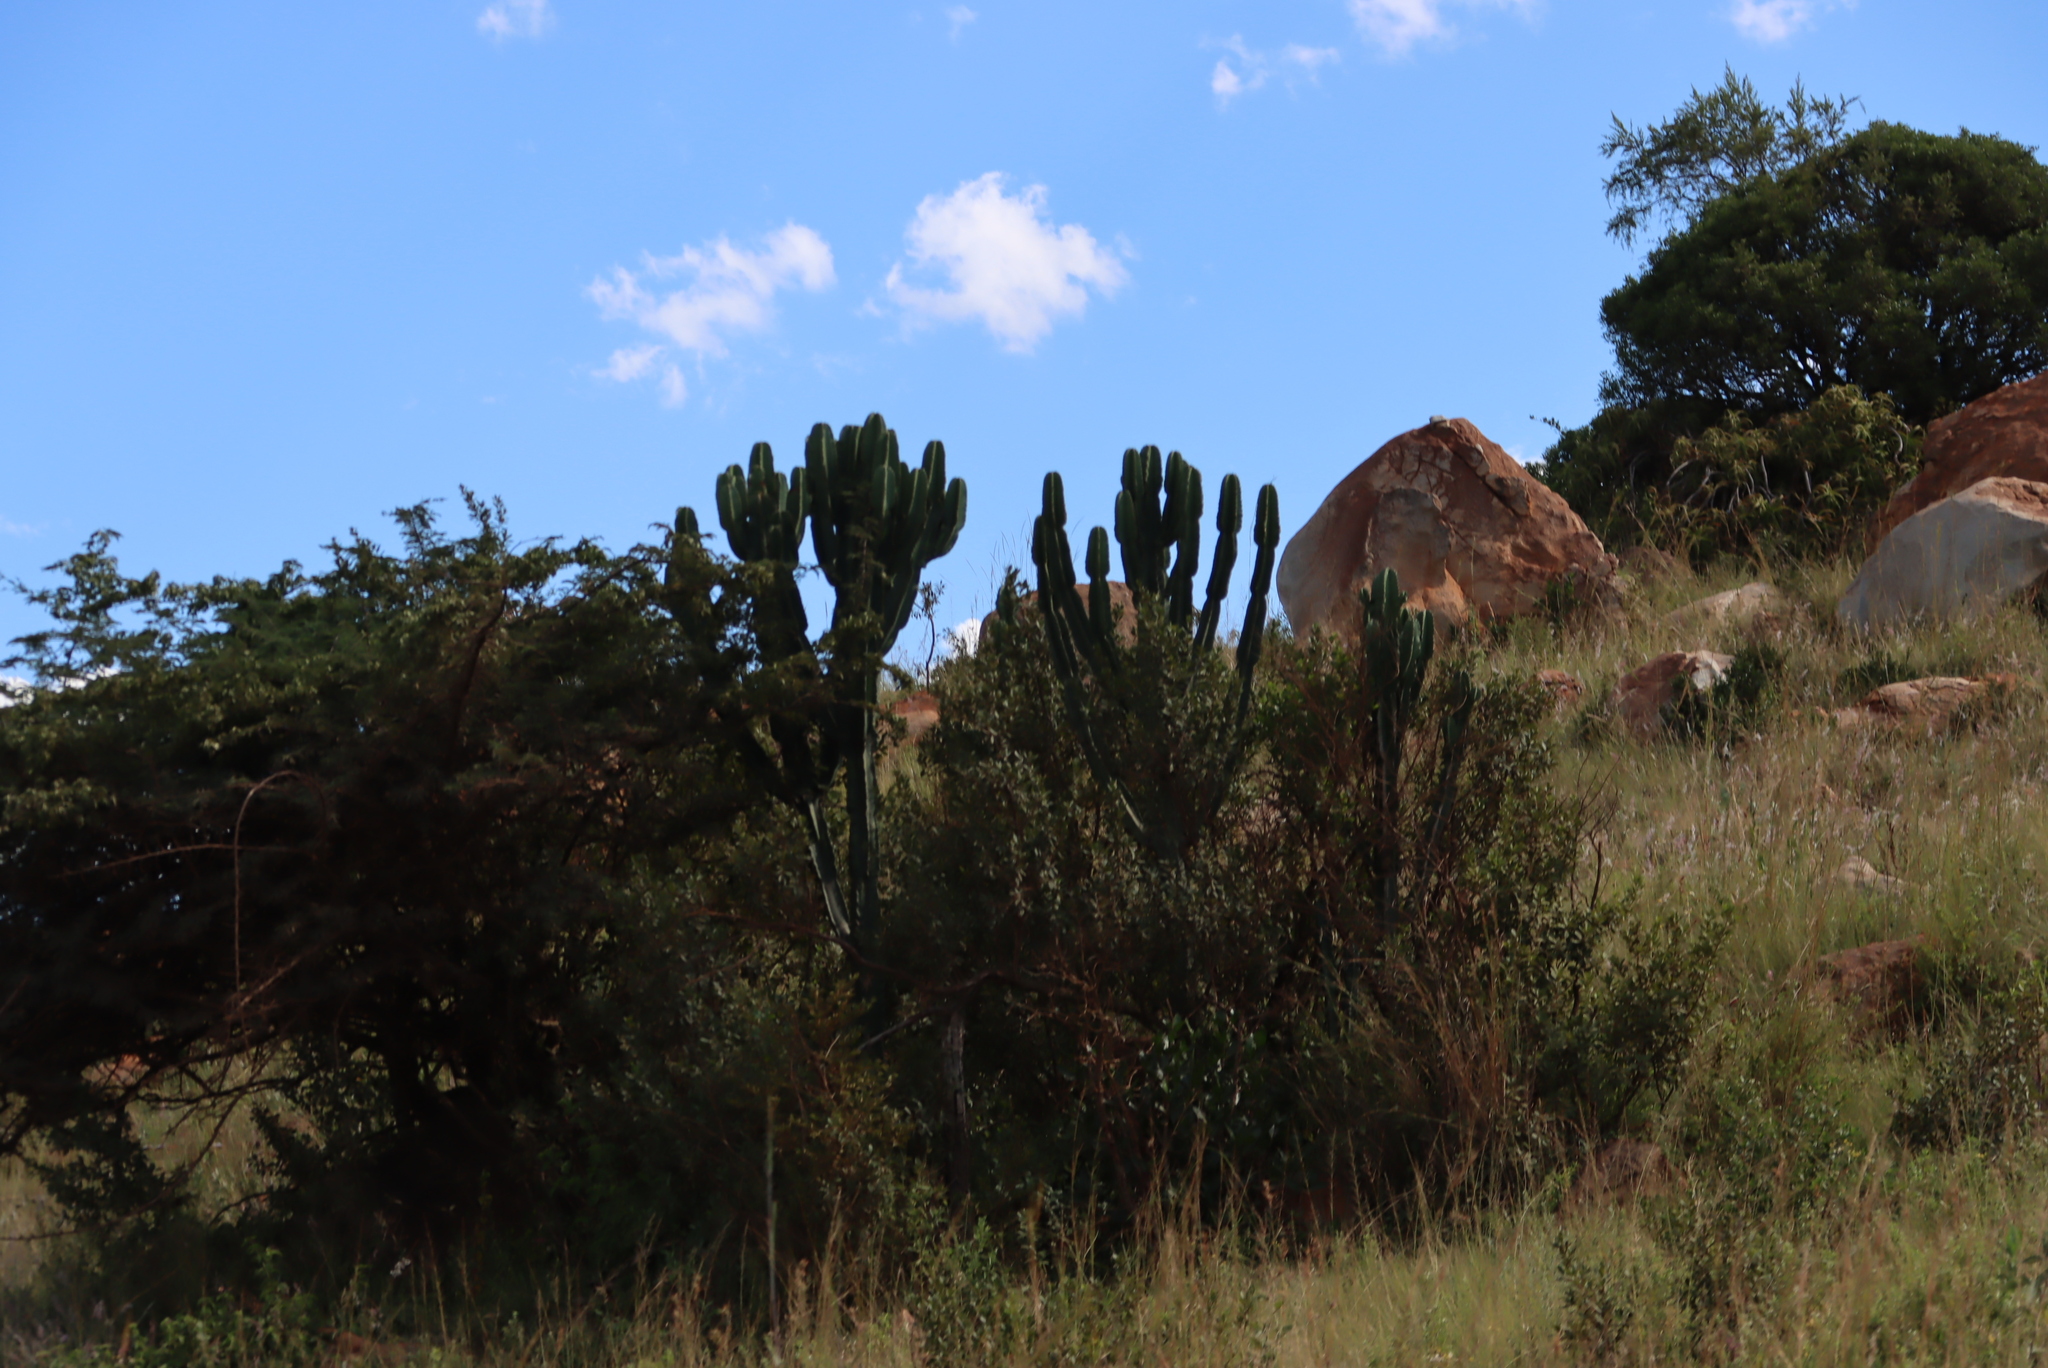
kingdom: Plantae
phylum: Tracheophyta
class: Magnoliopsida
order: Malpighiales
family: Euphorbiaceae
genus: Euphorbia
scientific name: Euphorbia ingens
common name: Cactus spurge
